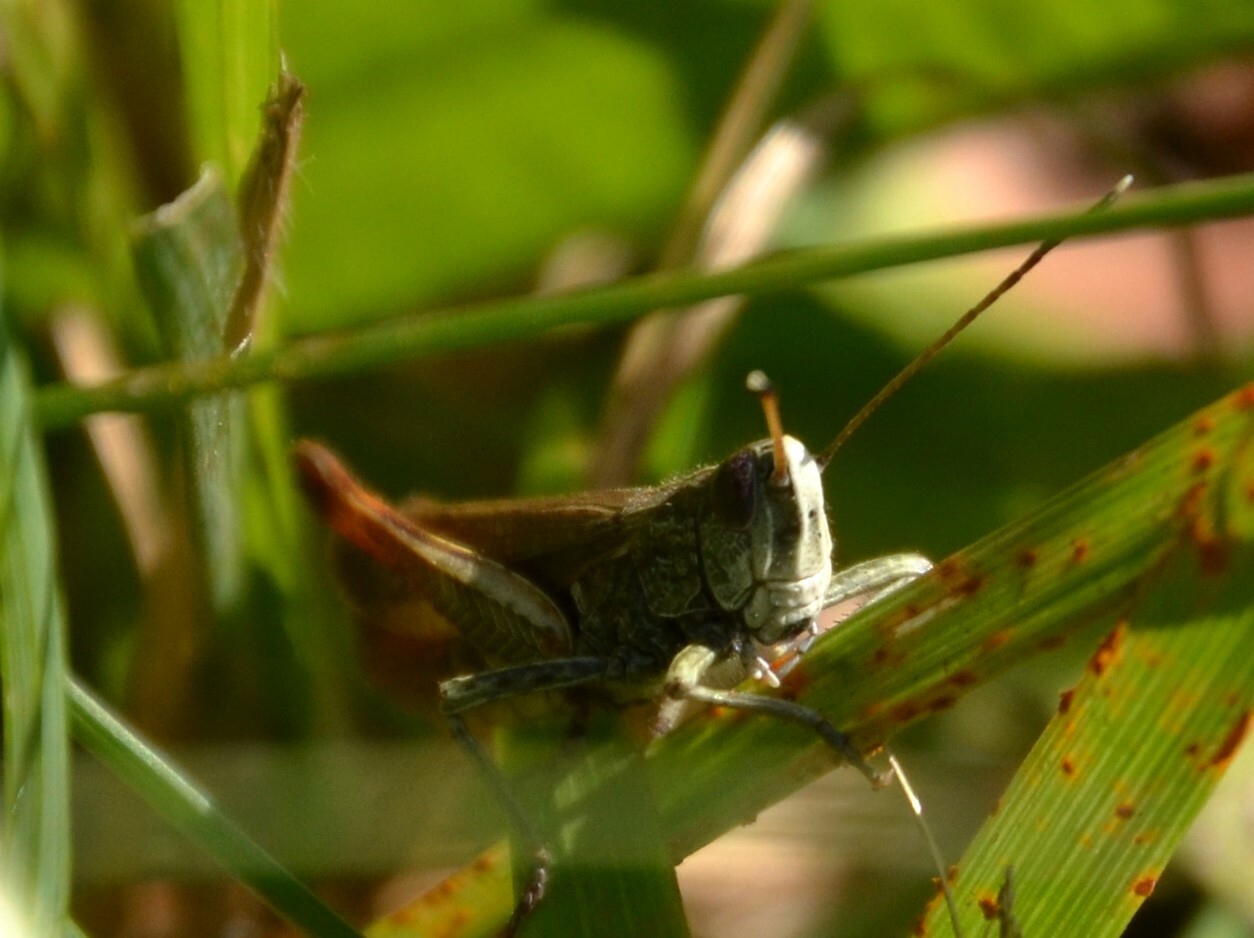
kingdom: Animalia
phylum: Arthropoda
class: Insecta
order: Orthoptera
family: Acrididae
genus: Gomphocerippus
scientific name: Gomphocerippus rufus
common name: Rufous grasshopper
